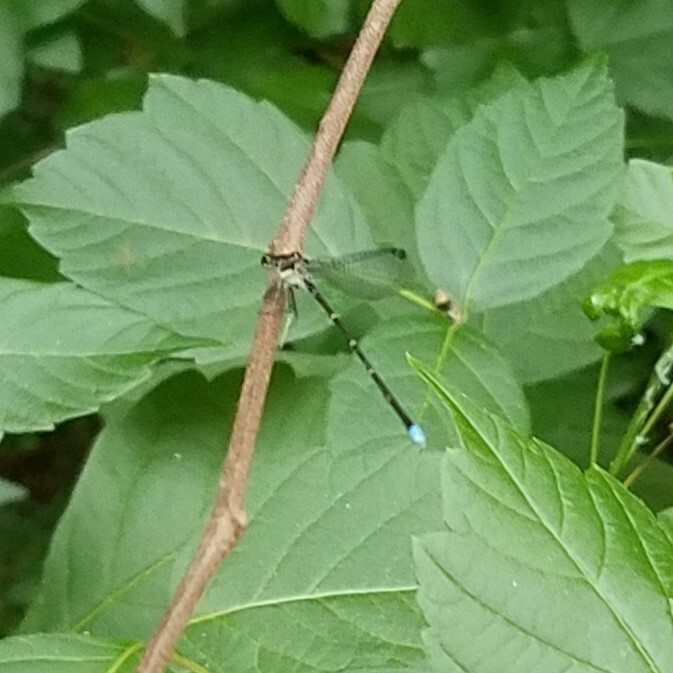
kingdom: Animalia
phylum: Arthropoda
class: Insecta
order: Odonata
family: Coenagrionidae
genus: Argia
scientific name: Argia tibialis
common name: Blue-tipped dancer
